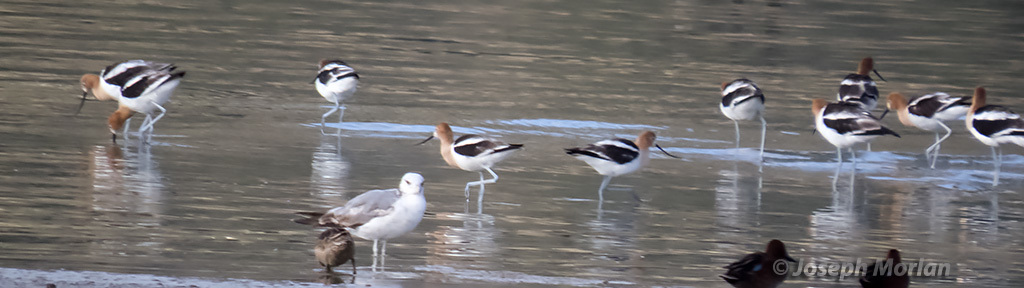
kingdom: Animalia
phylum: Chordata
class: Aves
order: Charadriiformes
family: Recurvirostridae
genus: Recurvirostra
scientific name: Recurvirostra americana
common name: American avocet
